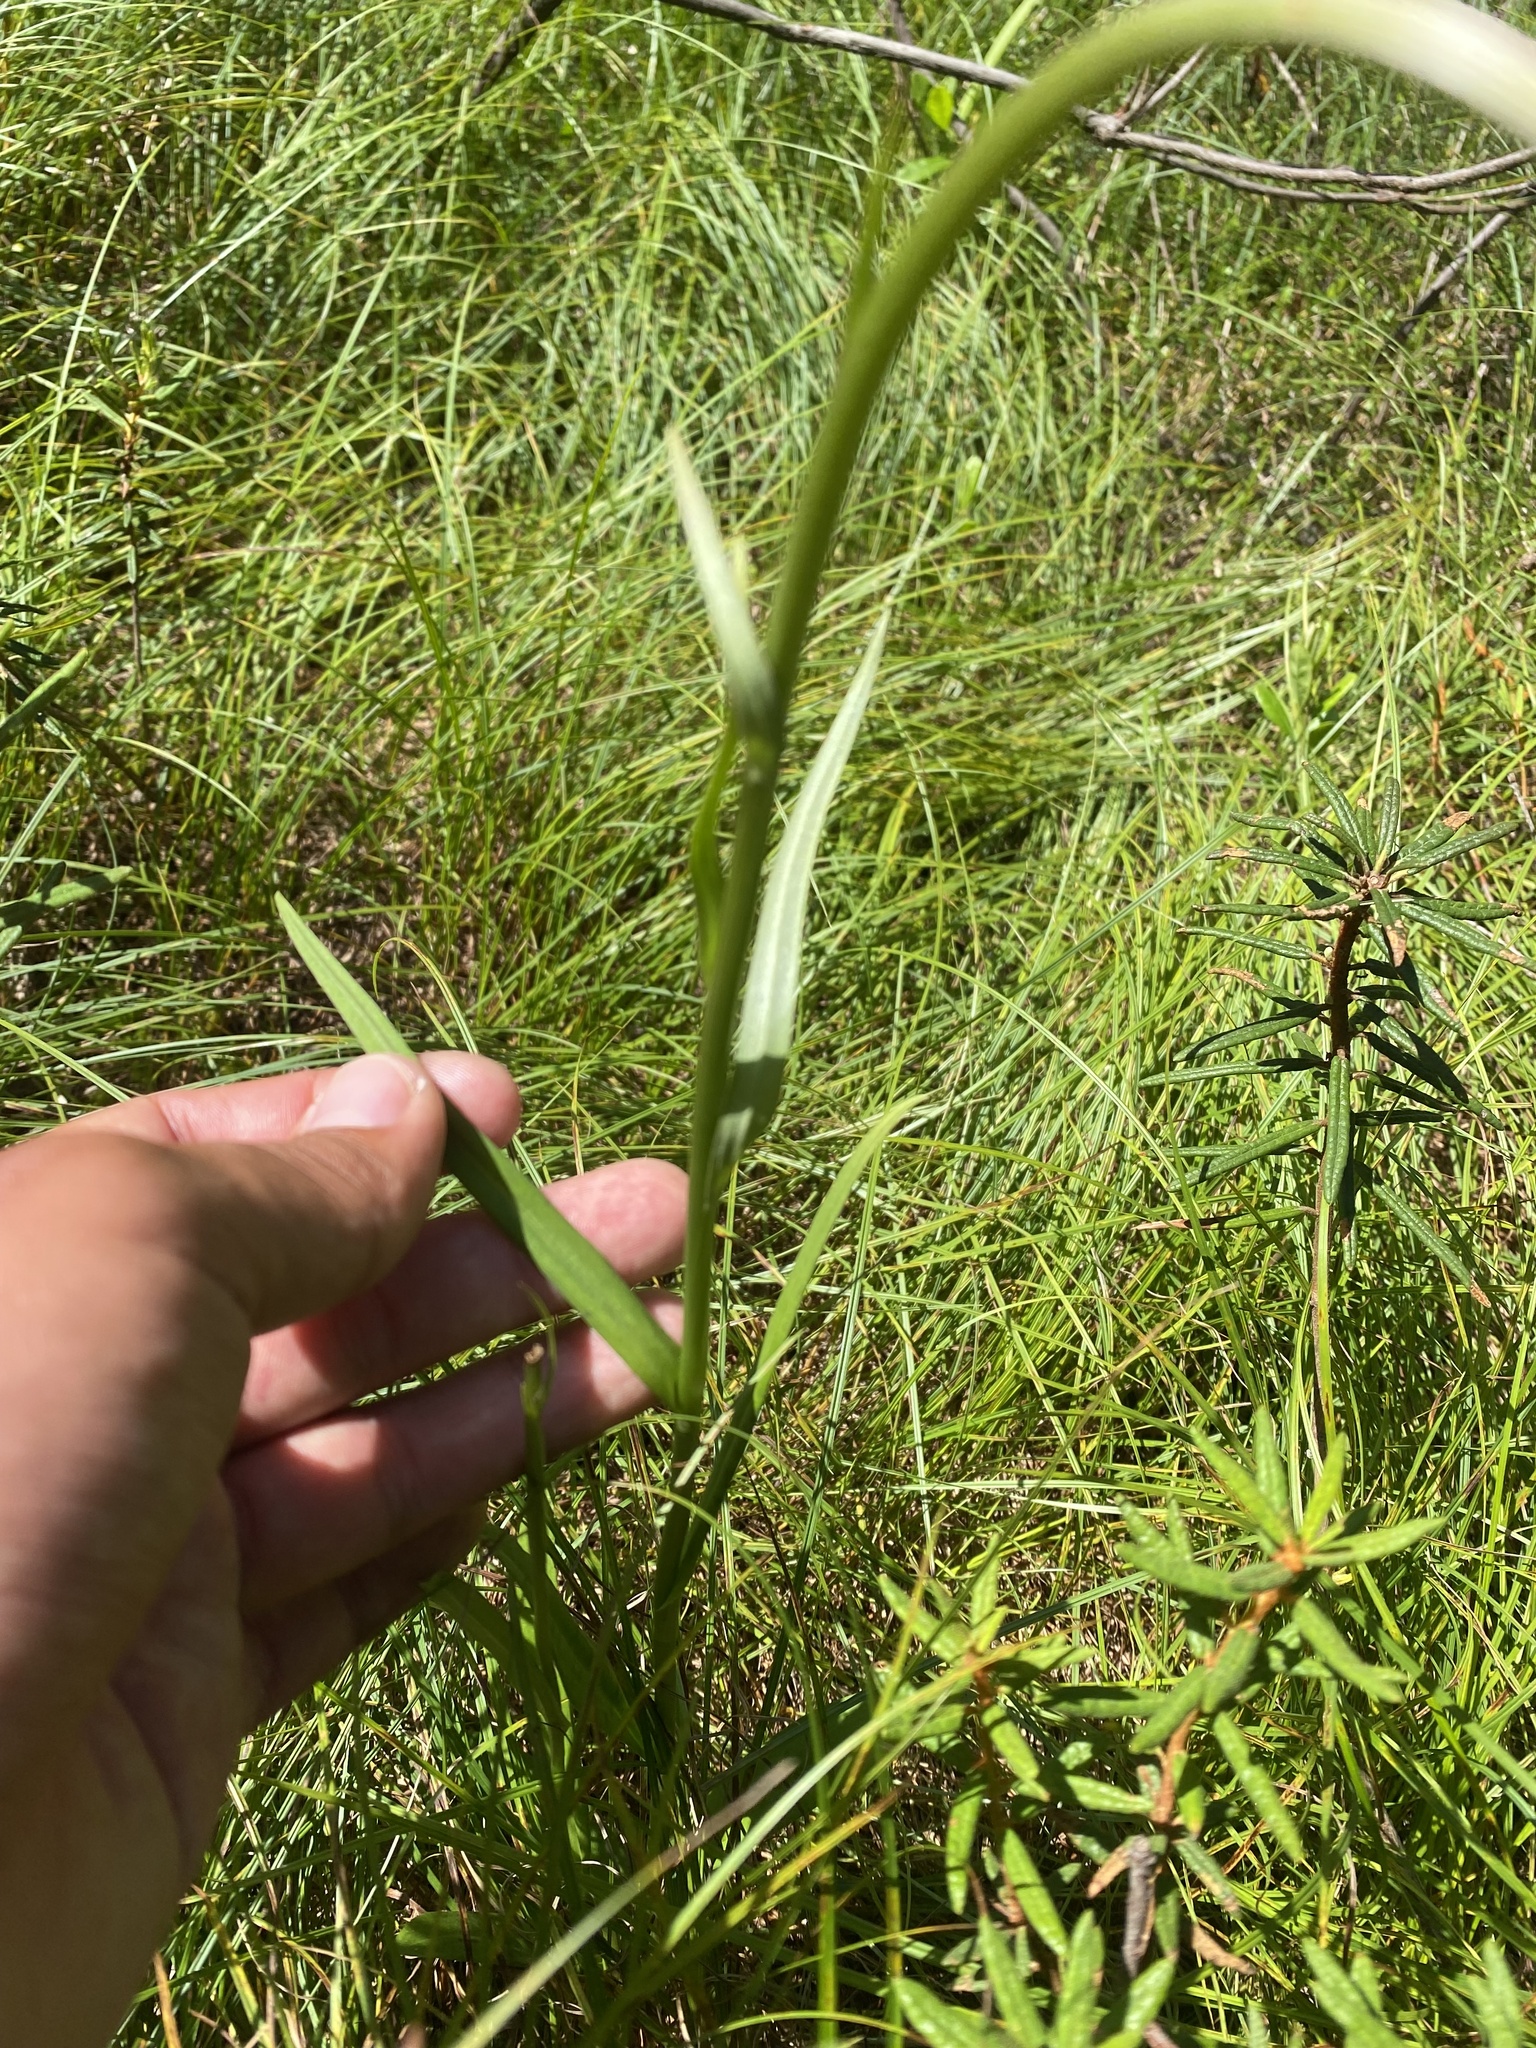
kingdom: Plantae
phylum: Tracheophyta
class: Liliopsida
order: Asparagales
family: Orchidaceae
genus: Dactylorhiza
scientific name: Dactylorhiza maculata
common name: Heath spotted-orchid
